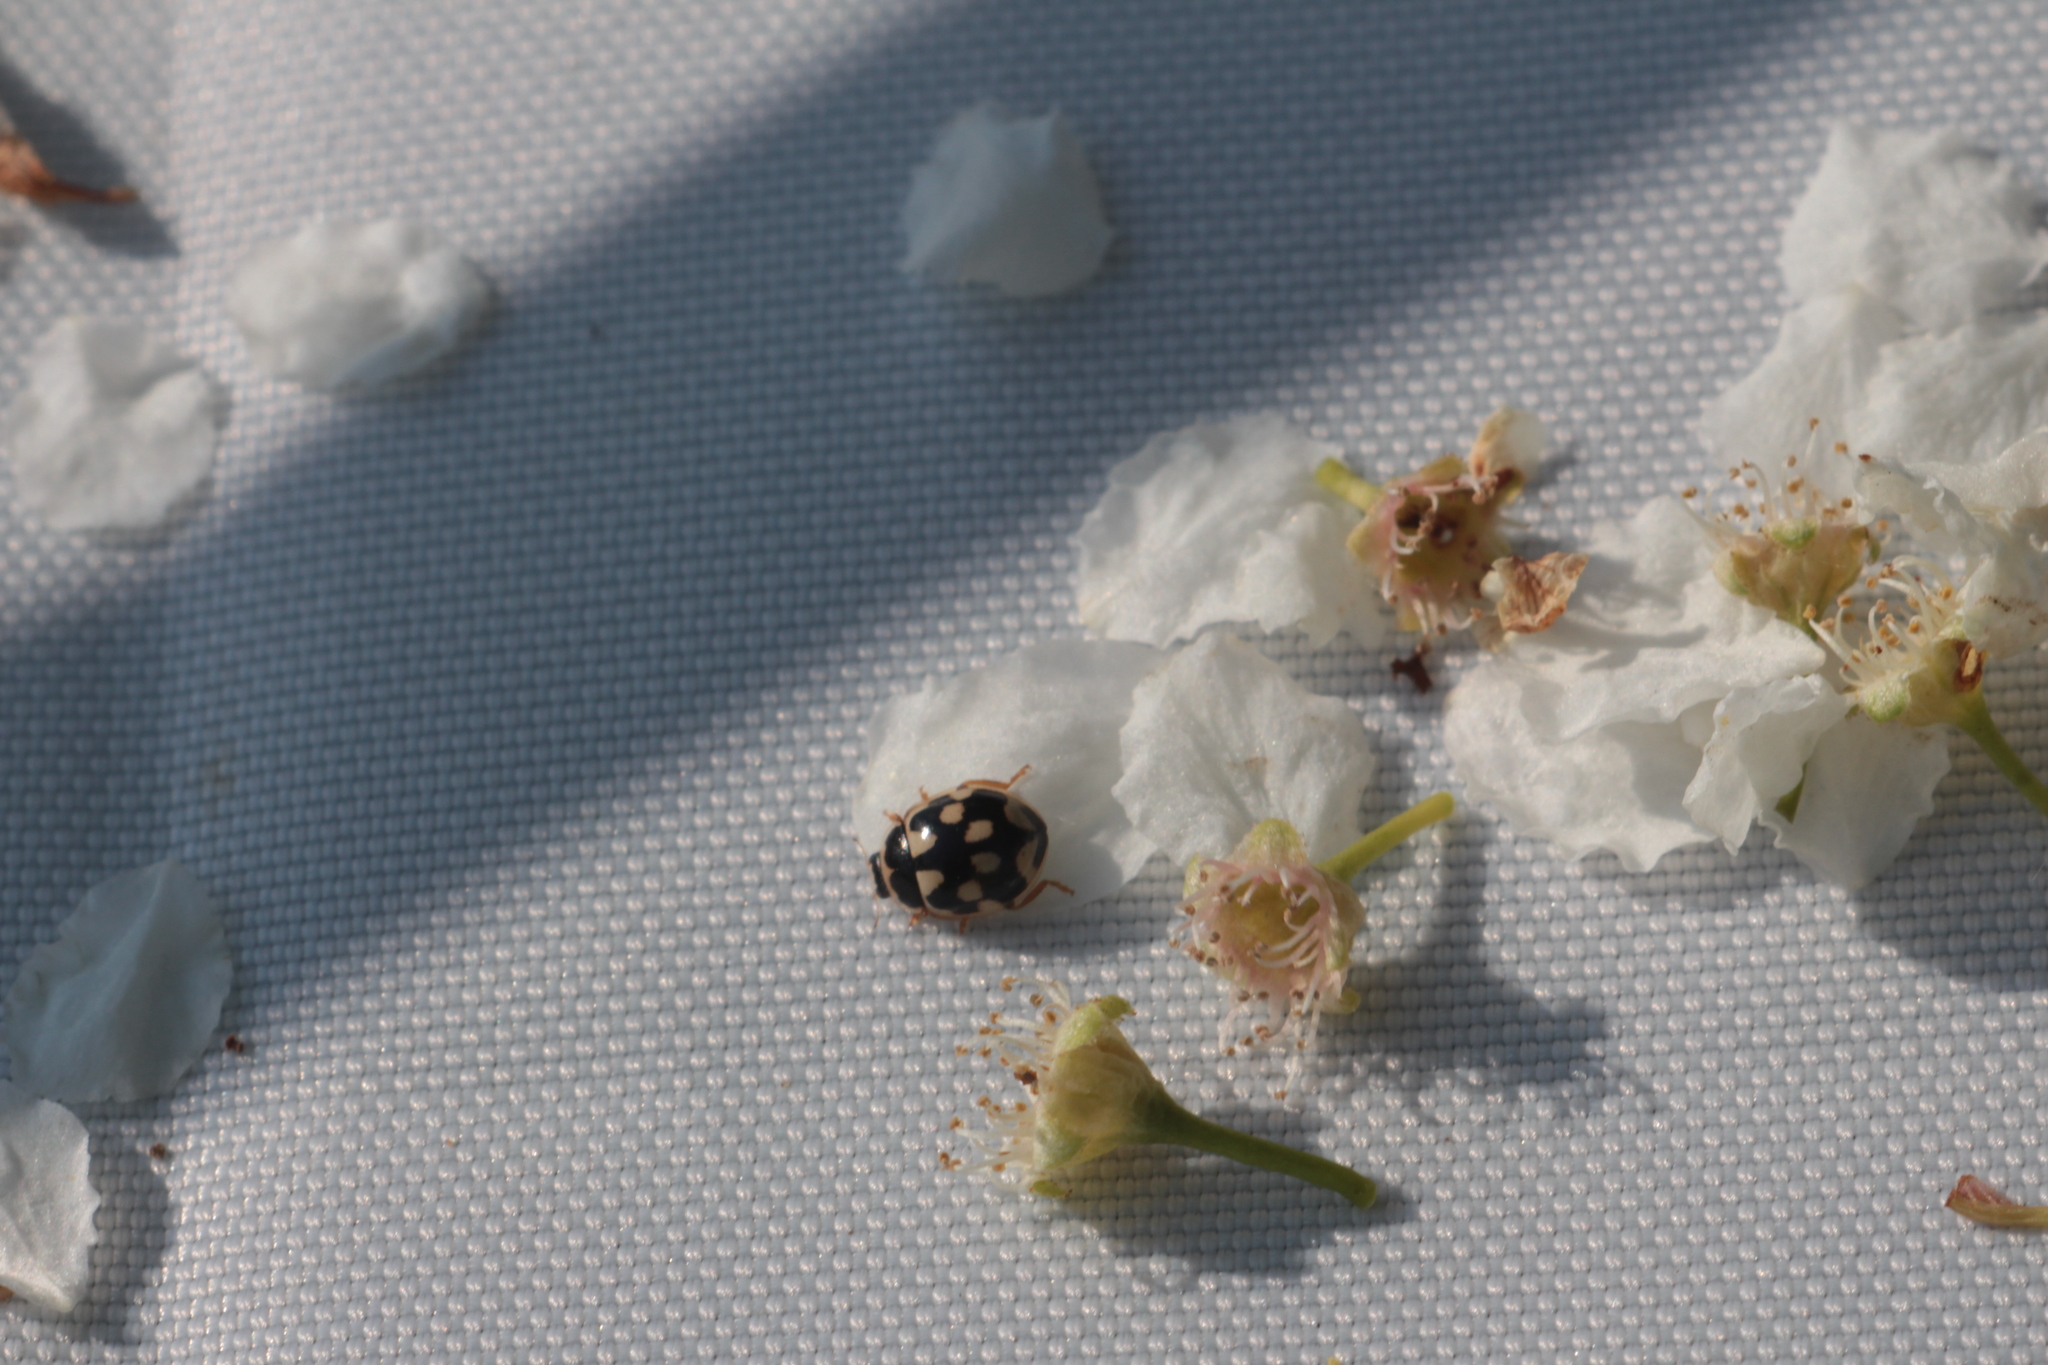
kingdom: Animalia
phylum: Arthropoda
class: Insecta
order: Coleoptera
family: Coccinellidae
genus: Propylaea
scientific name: Propylaea quatuordecimpunctata
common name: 14-spotted ladybird beetle
